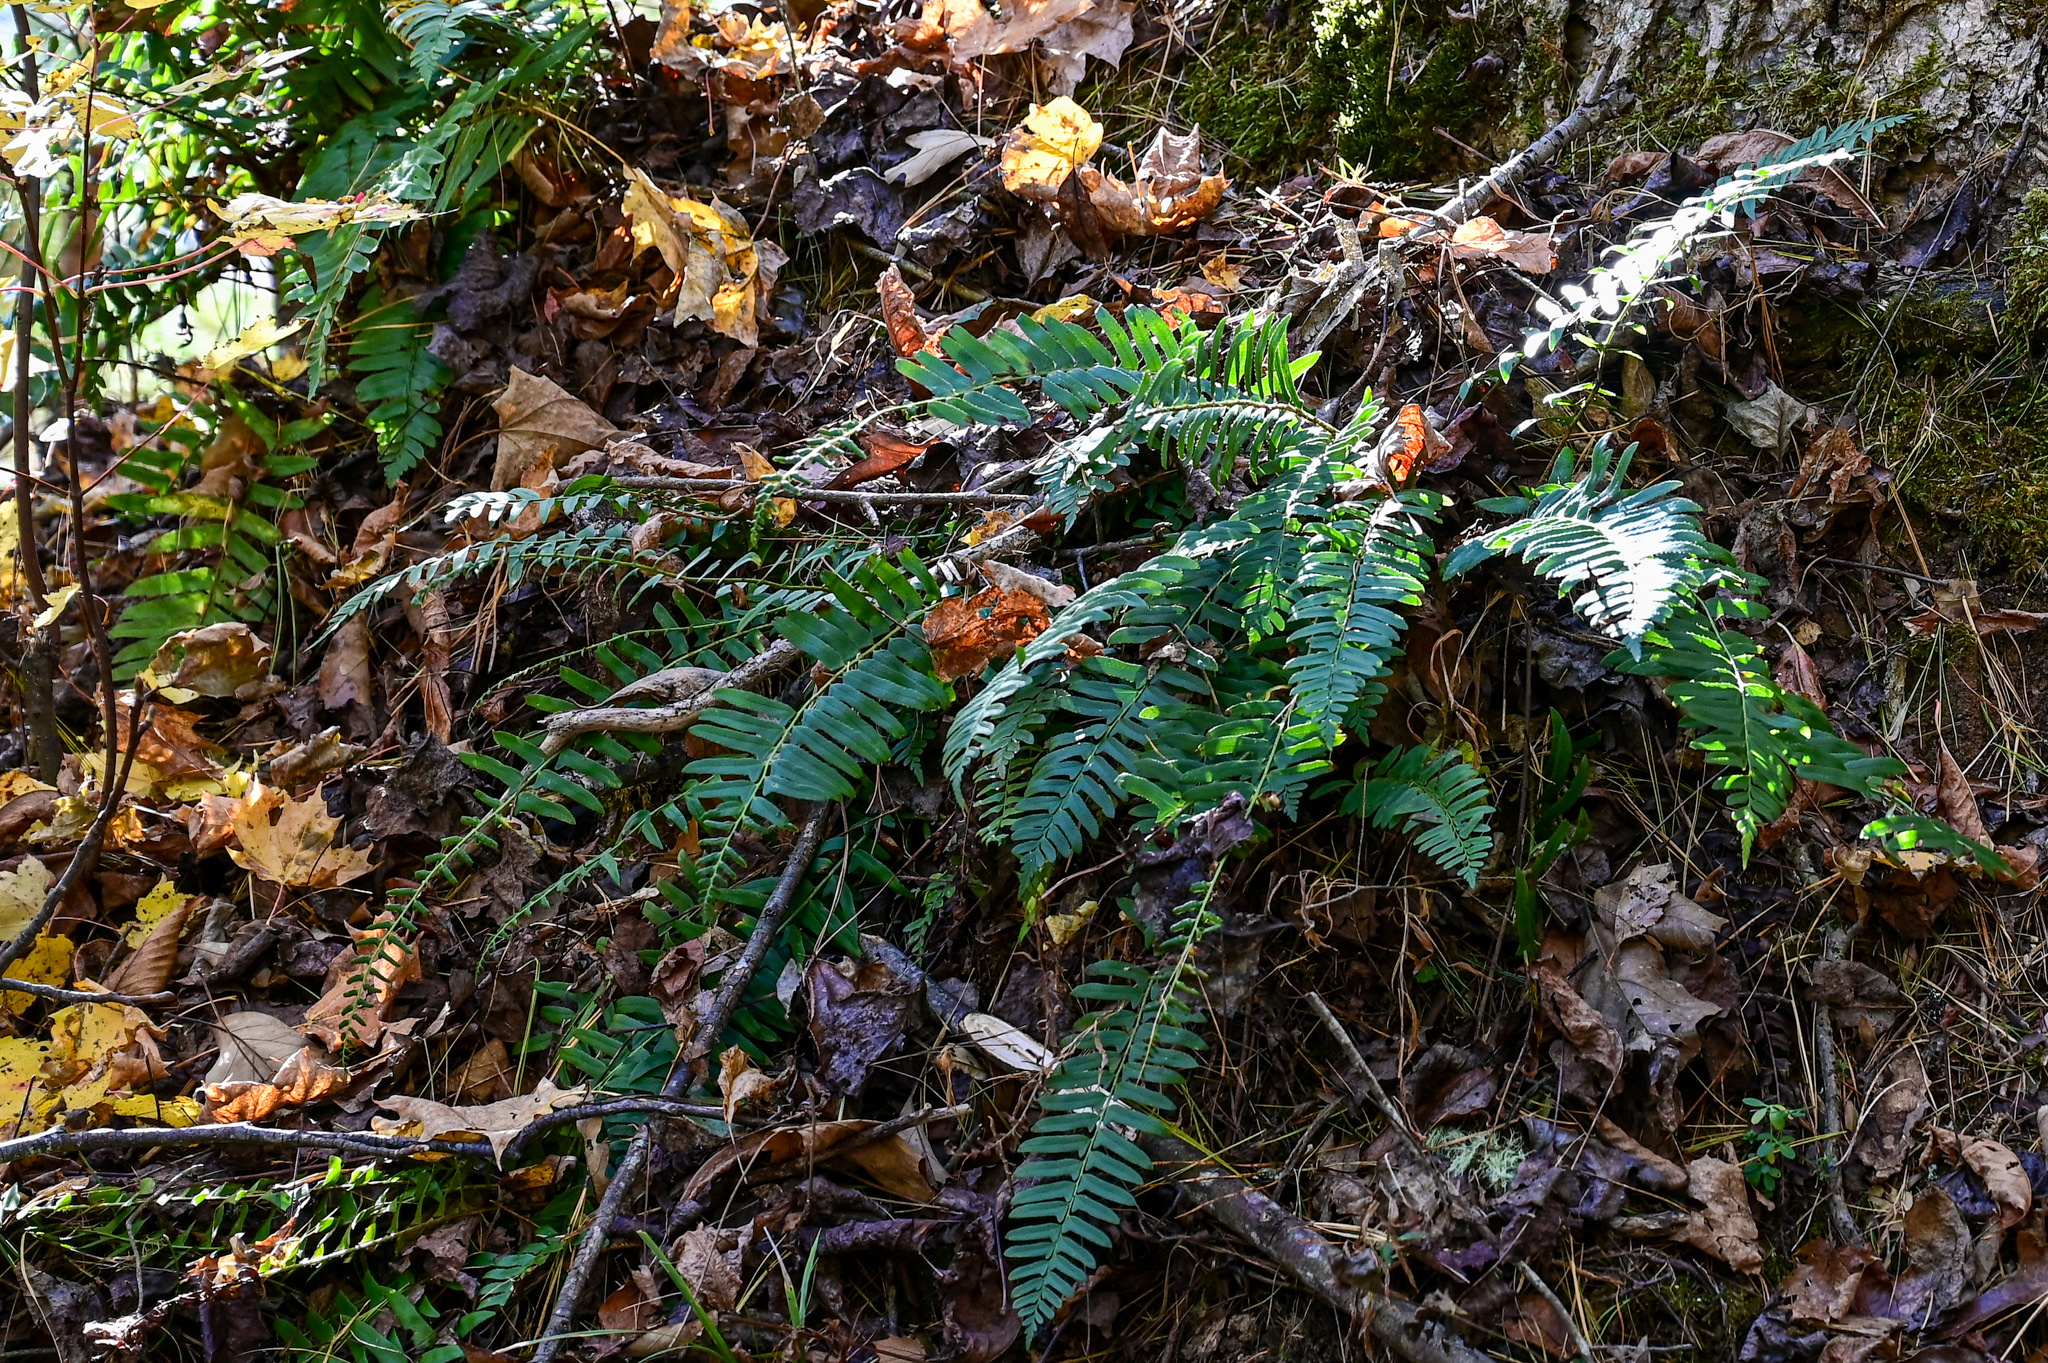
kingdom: Plantae
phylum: Tracheophyta
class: Polypodiopsida
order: Polypodiales
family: Dryopteridaceae
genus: Polystichum
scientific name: Polystichum acrostichoides
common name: Christmas fern
